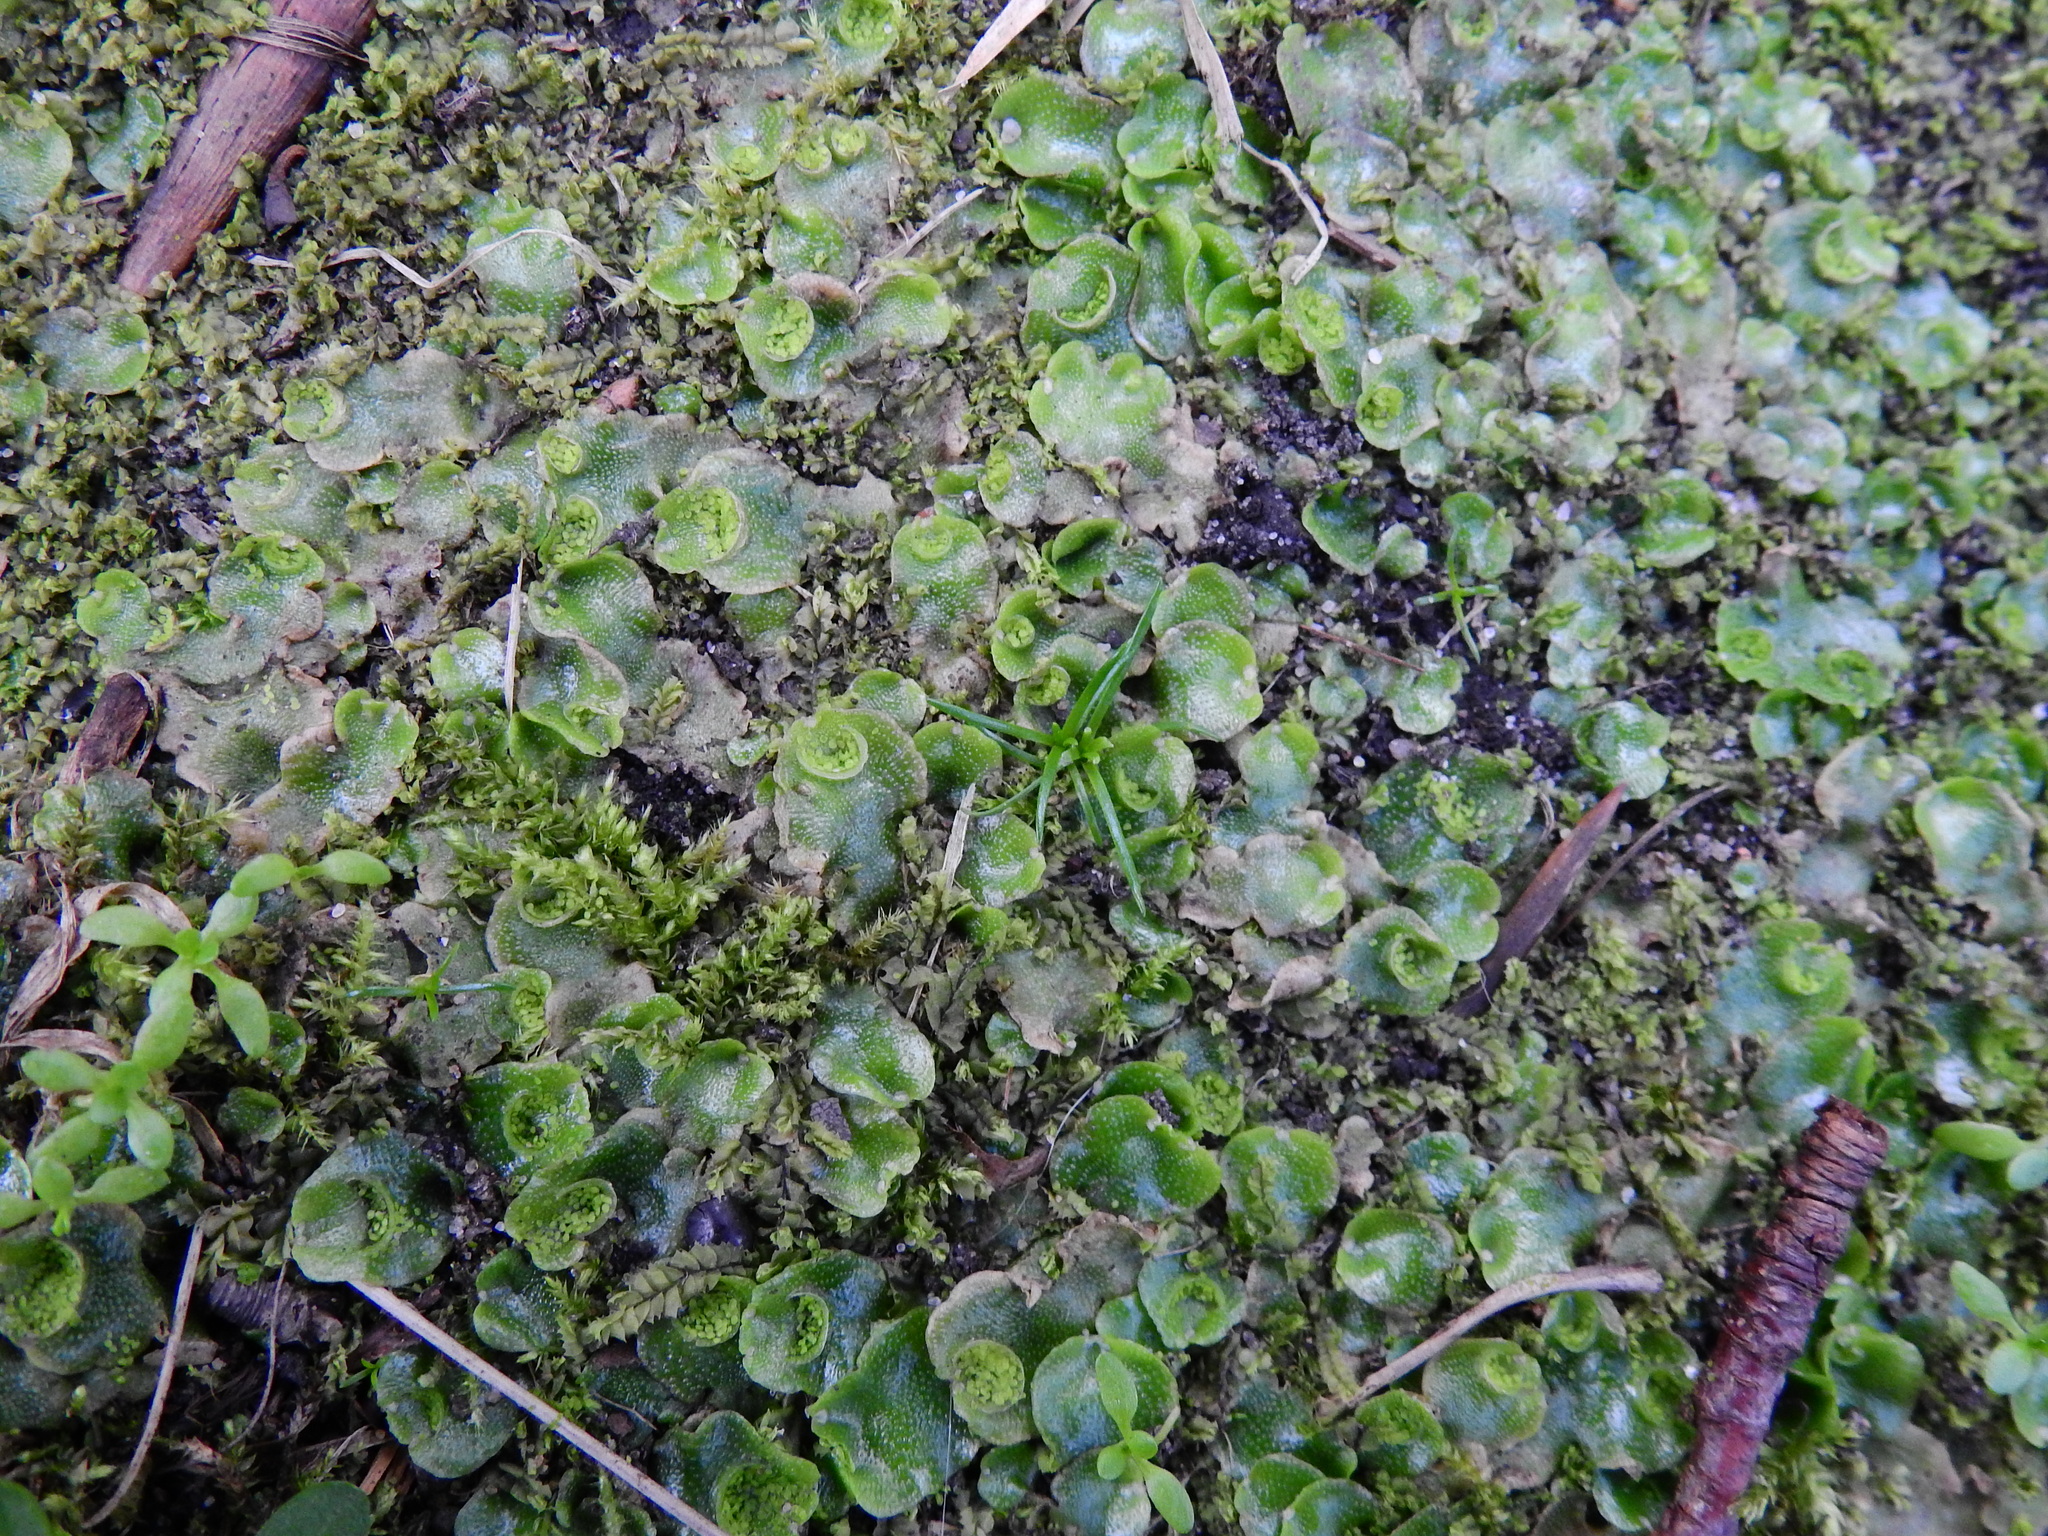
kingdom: Plantae
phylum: Marchantiophyta
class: Marchantiopsida
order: Lunulariales
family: Lunulariaceae
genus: Lunularia
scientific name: Lunularia cruciata
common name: Crescent-cup liverwort
